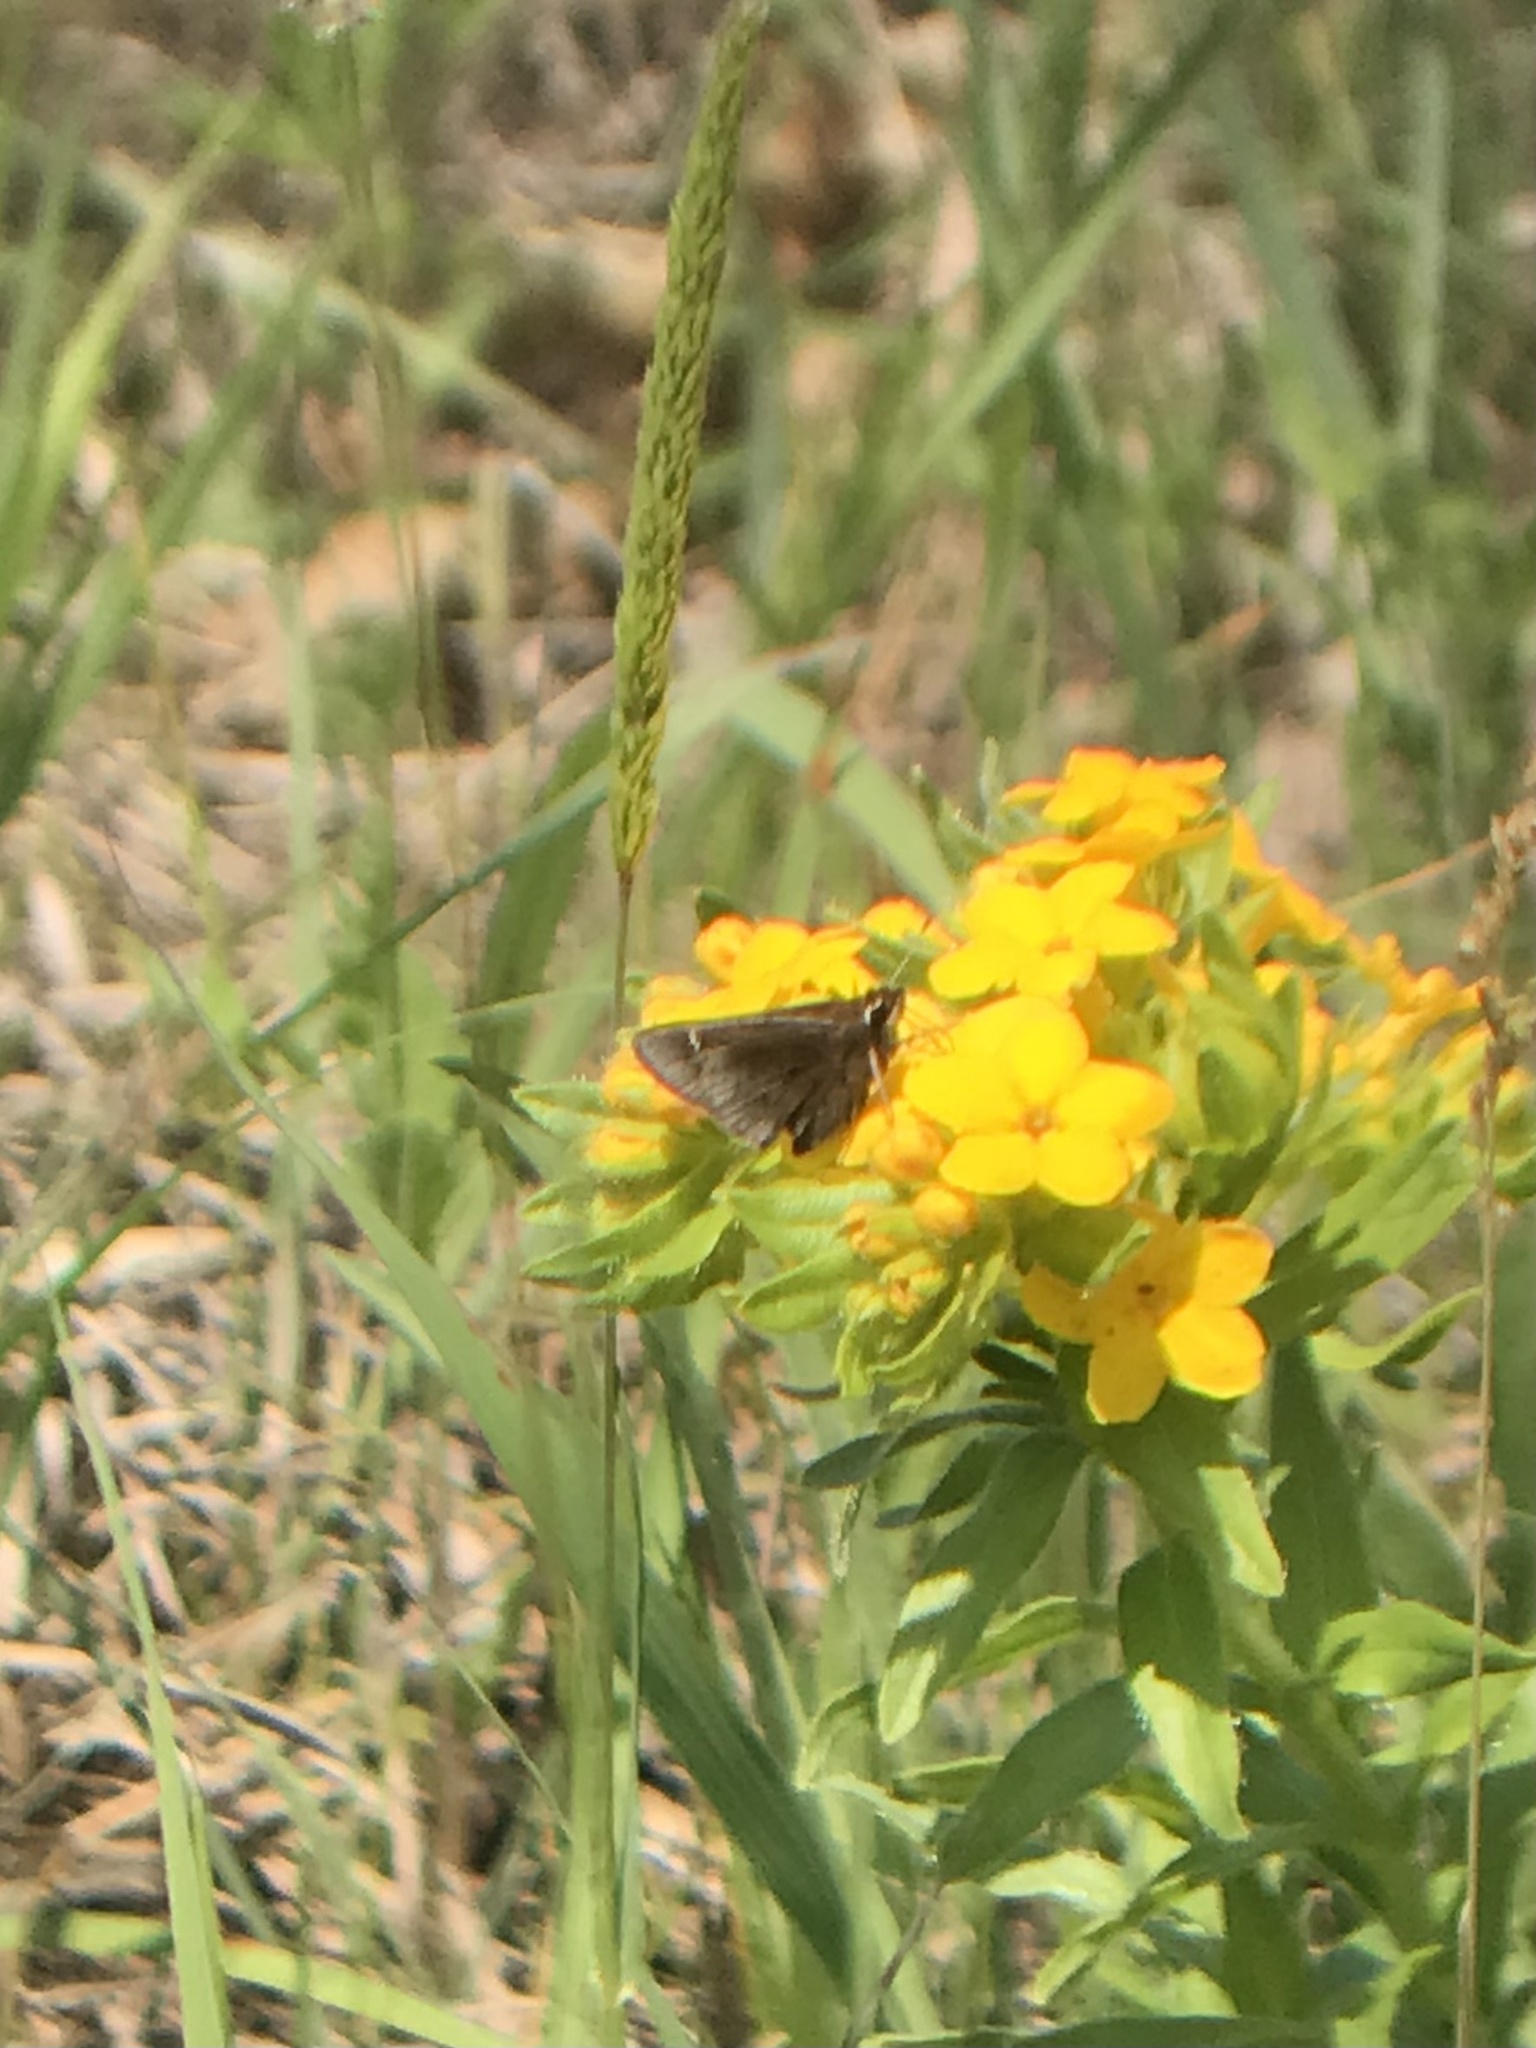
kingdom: Animalia
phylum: Arthropoda
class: Insecta
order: Lepidoptera
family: Hesperiidae
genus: Atrytonopsis
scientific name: Atrytonopsis hianna
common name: Dusted skipper
